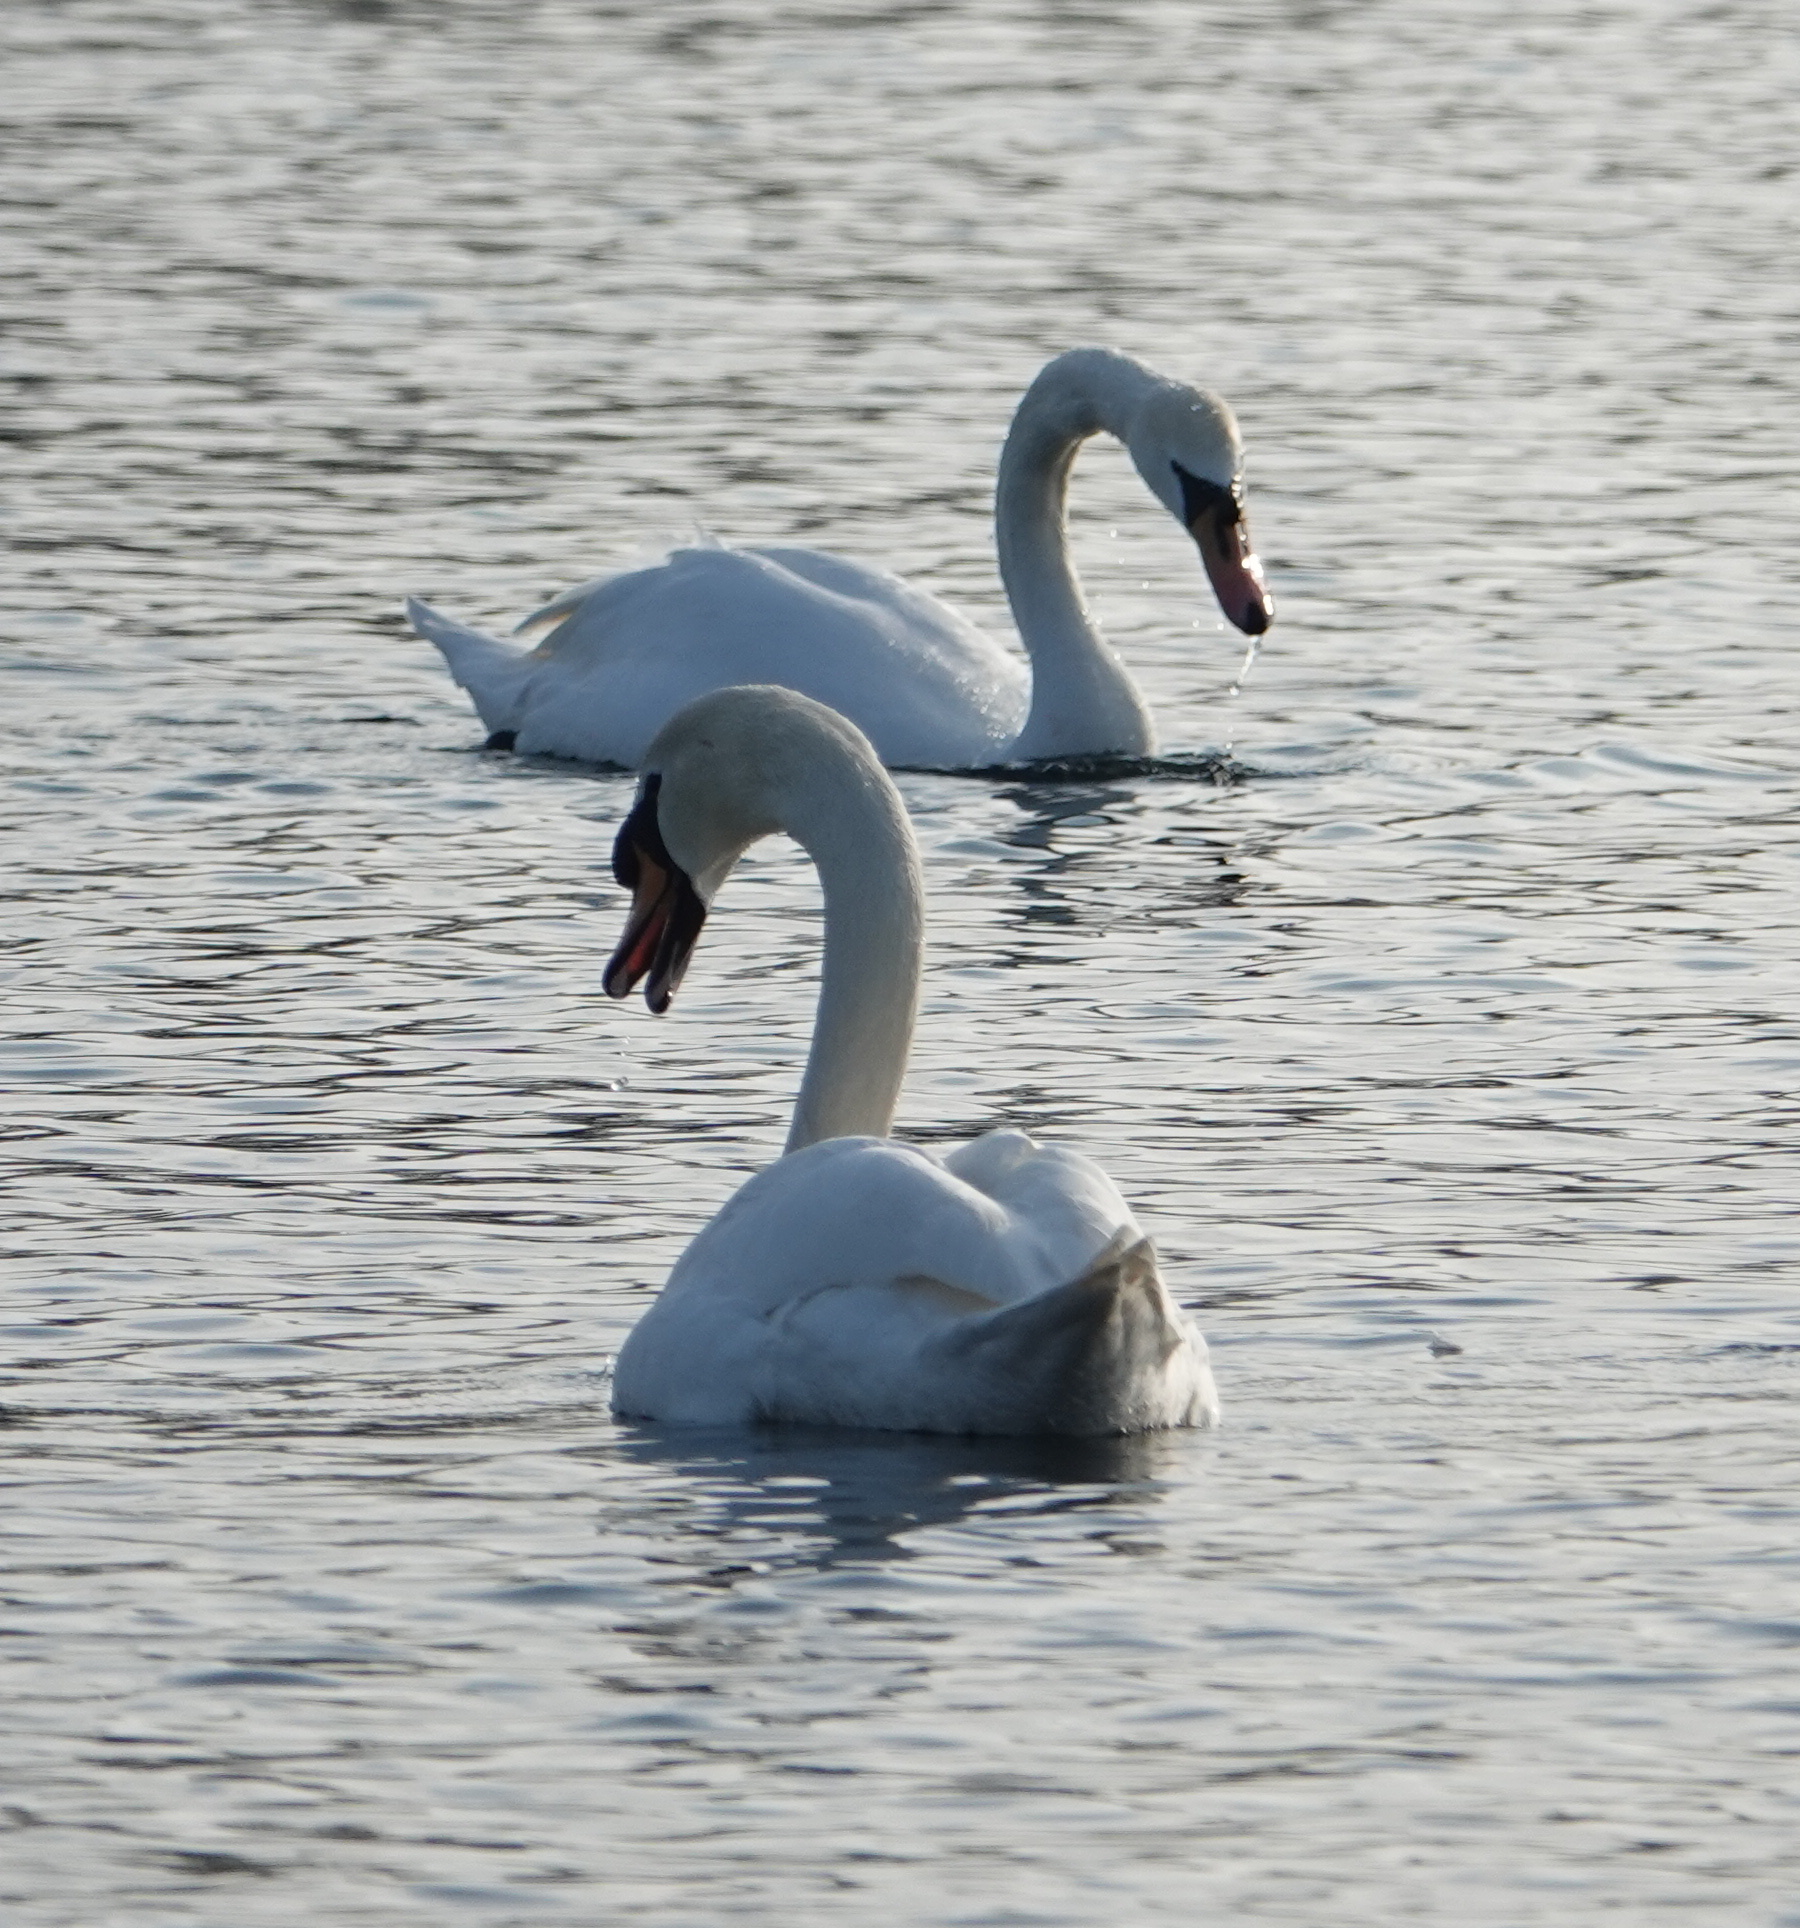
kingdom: Animalia
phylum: Chordata
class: Aves
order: Anseriformes
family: Anatidae
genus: Cygnus
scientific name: Cygnus olor
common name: Mute swan
